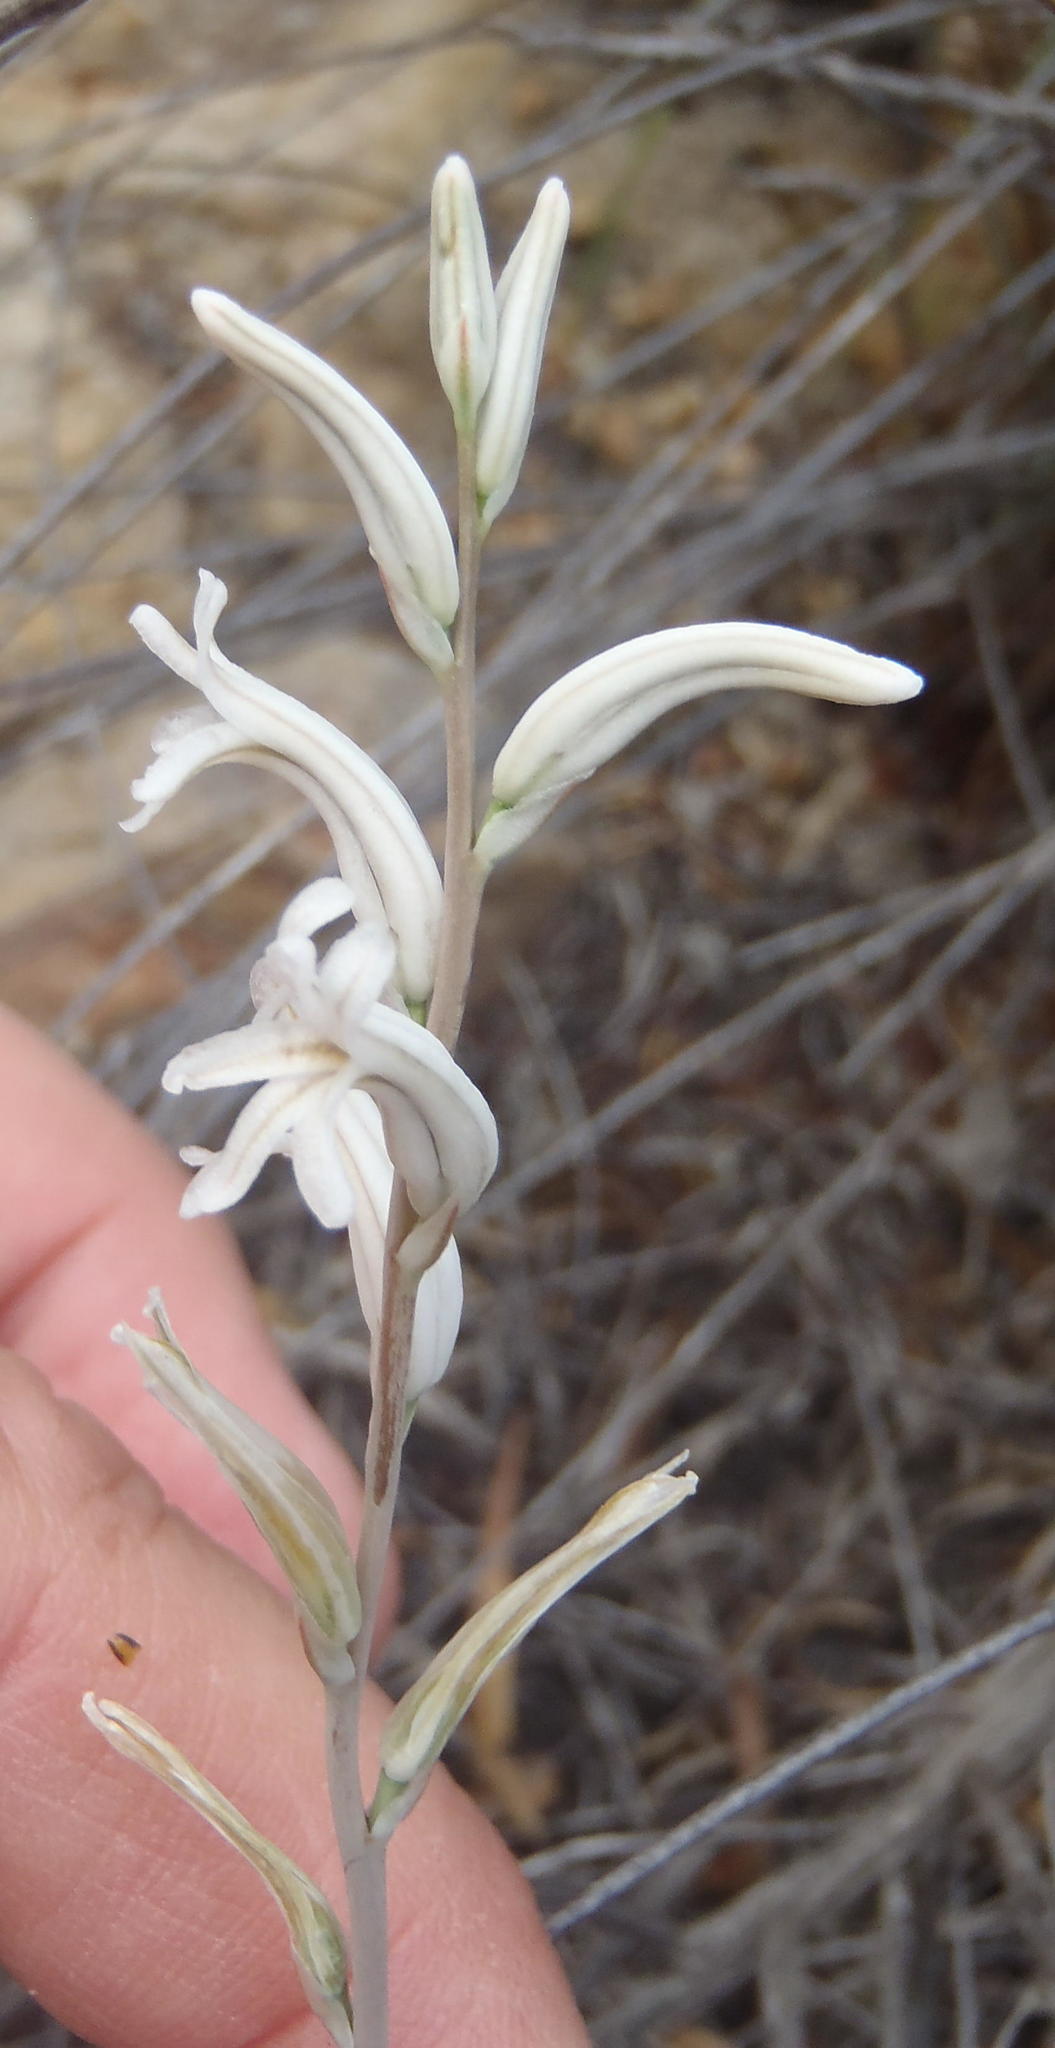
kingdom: Plantae
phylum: Tracheophyta
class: Liliopsida
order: Asparagales
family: Asphodelaceae
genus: Haworthia
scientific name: Haworthia cooperi
